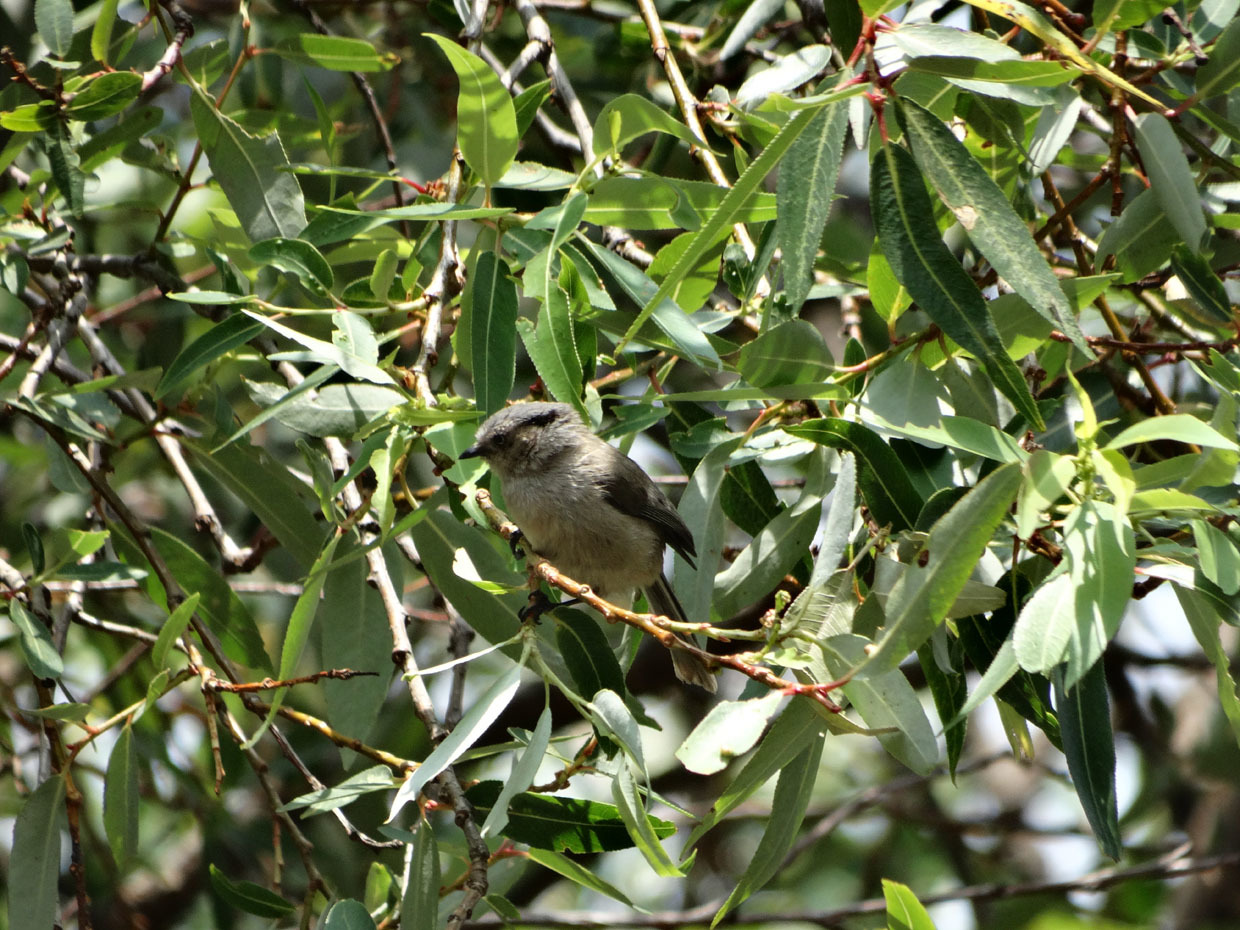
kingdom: Animalia
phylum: Chordata
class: Aves
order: Passeriformes
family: Aegithalidae
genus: Psaltriparus
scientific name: Psaltriparus minimus
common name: American bushtit
